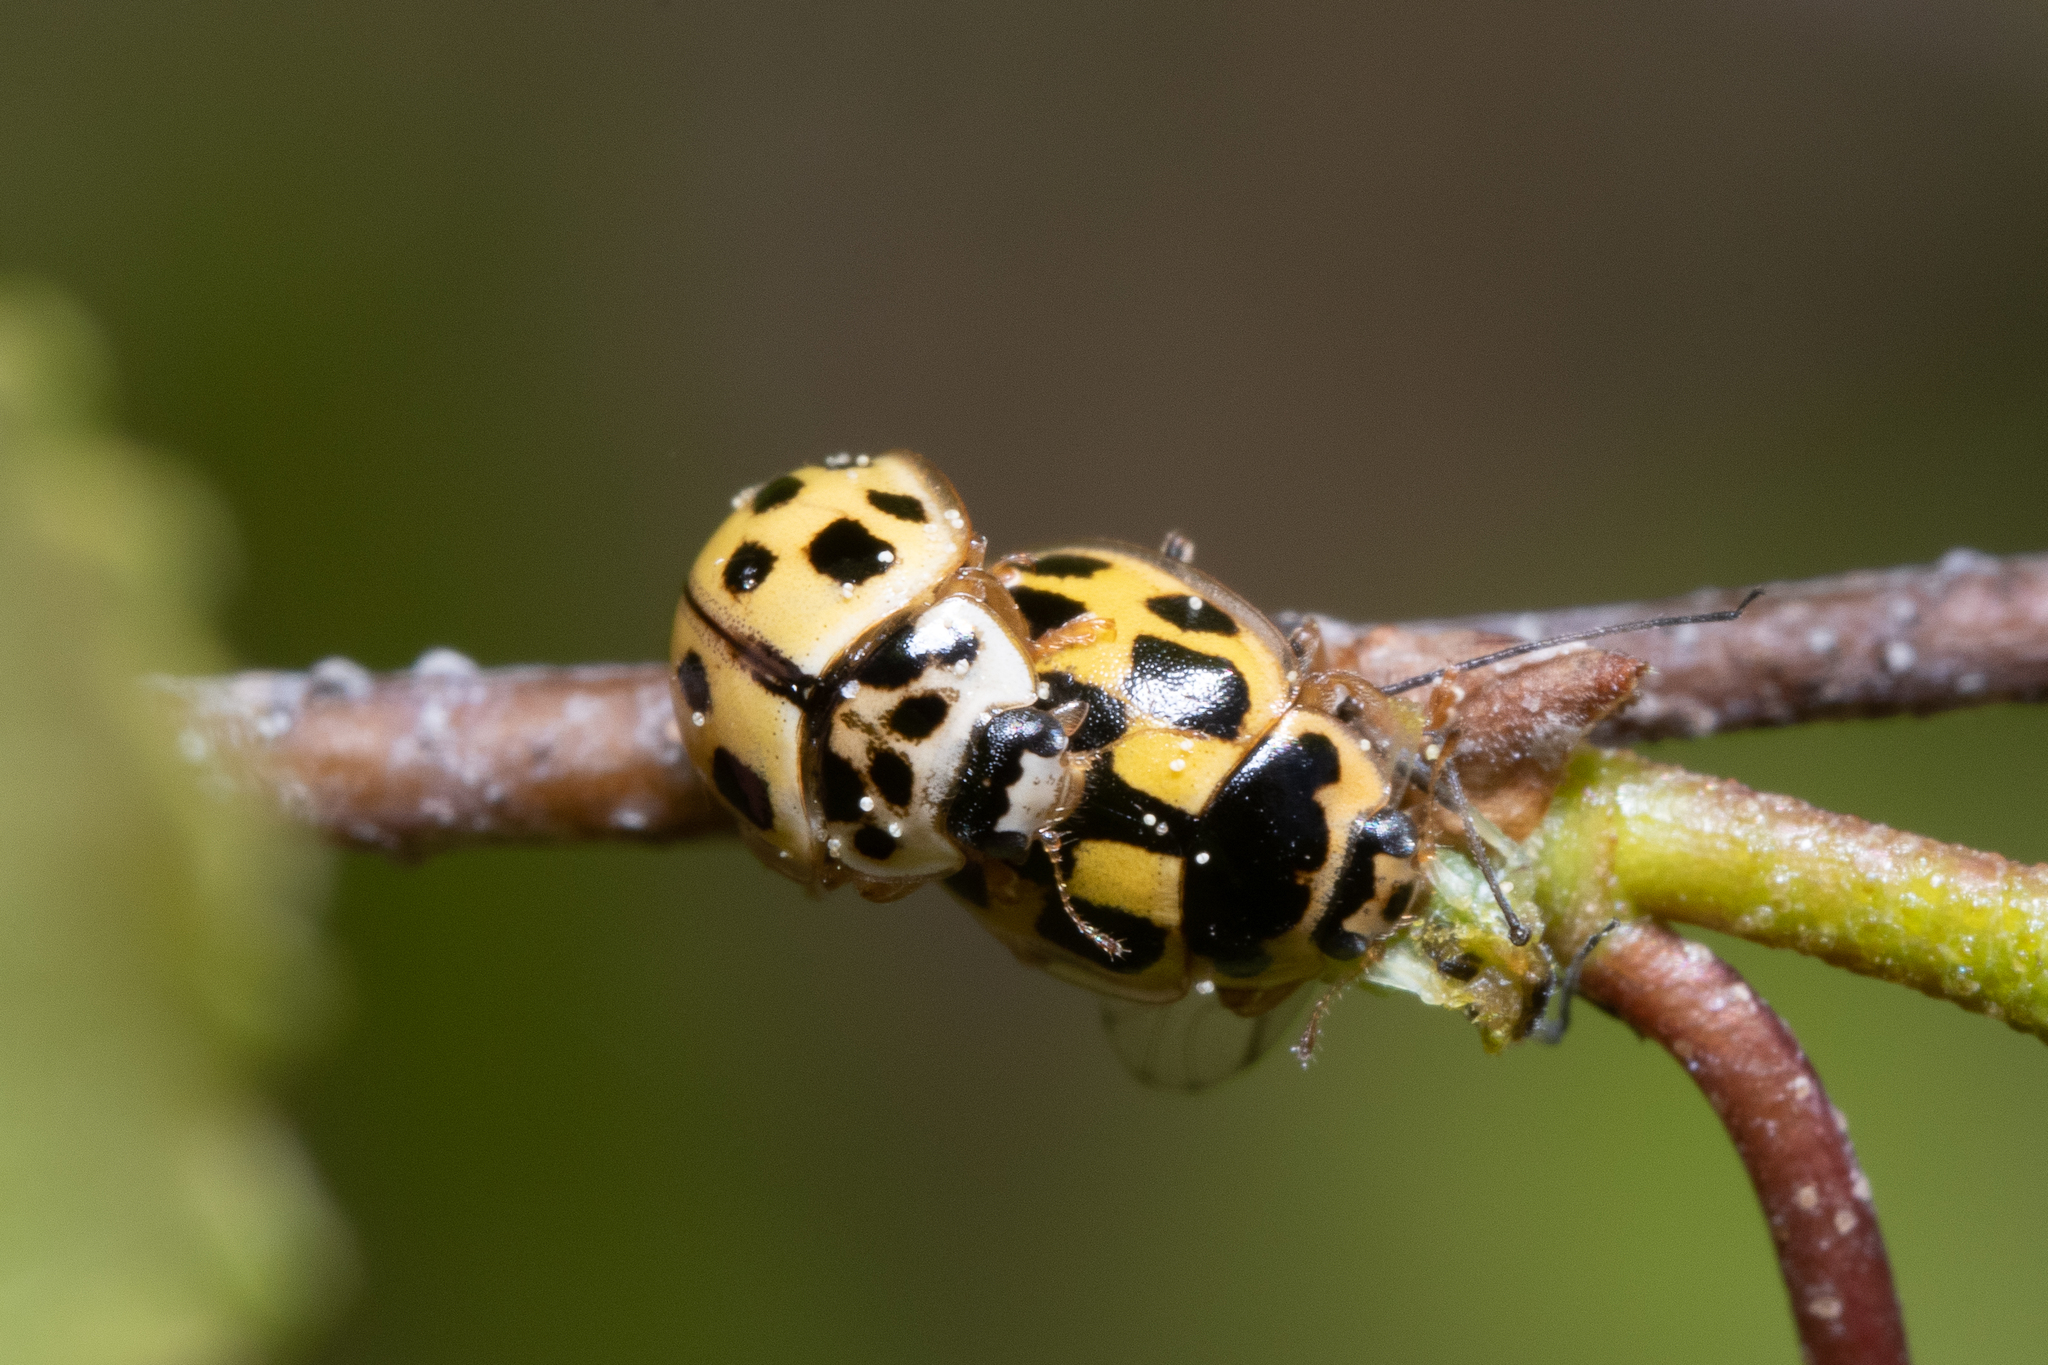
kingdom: Animalia
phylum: Arthropoda
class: Insecta
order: Coleoptera
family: Coccinellidae
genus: Propylaea
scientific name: Propylaea quatuordecimpunctata
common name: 14-spotted ladybird beetle
